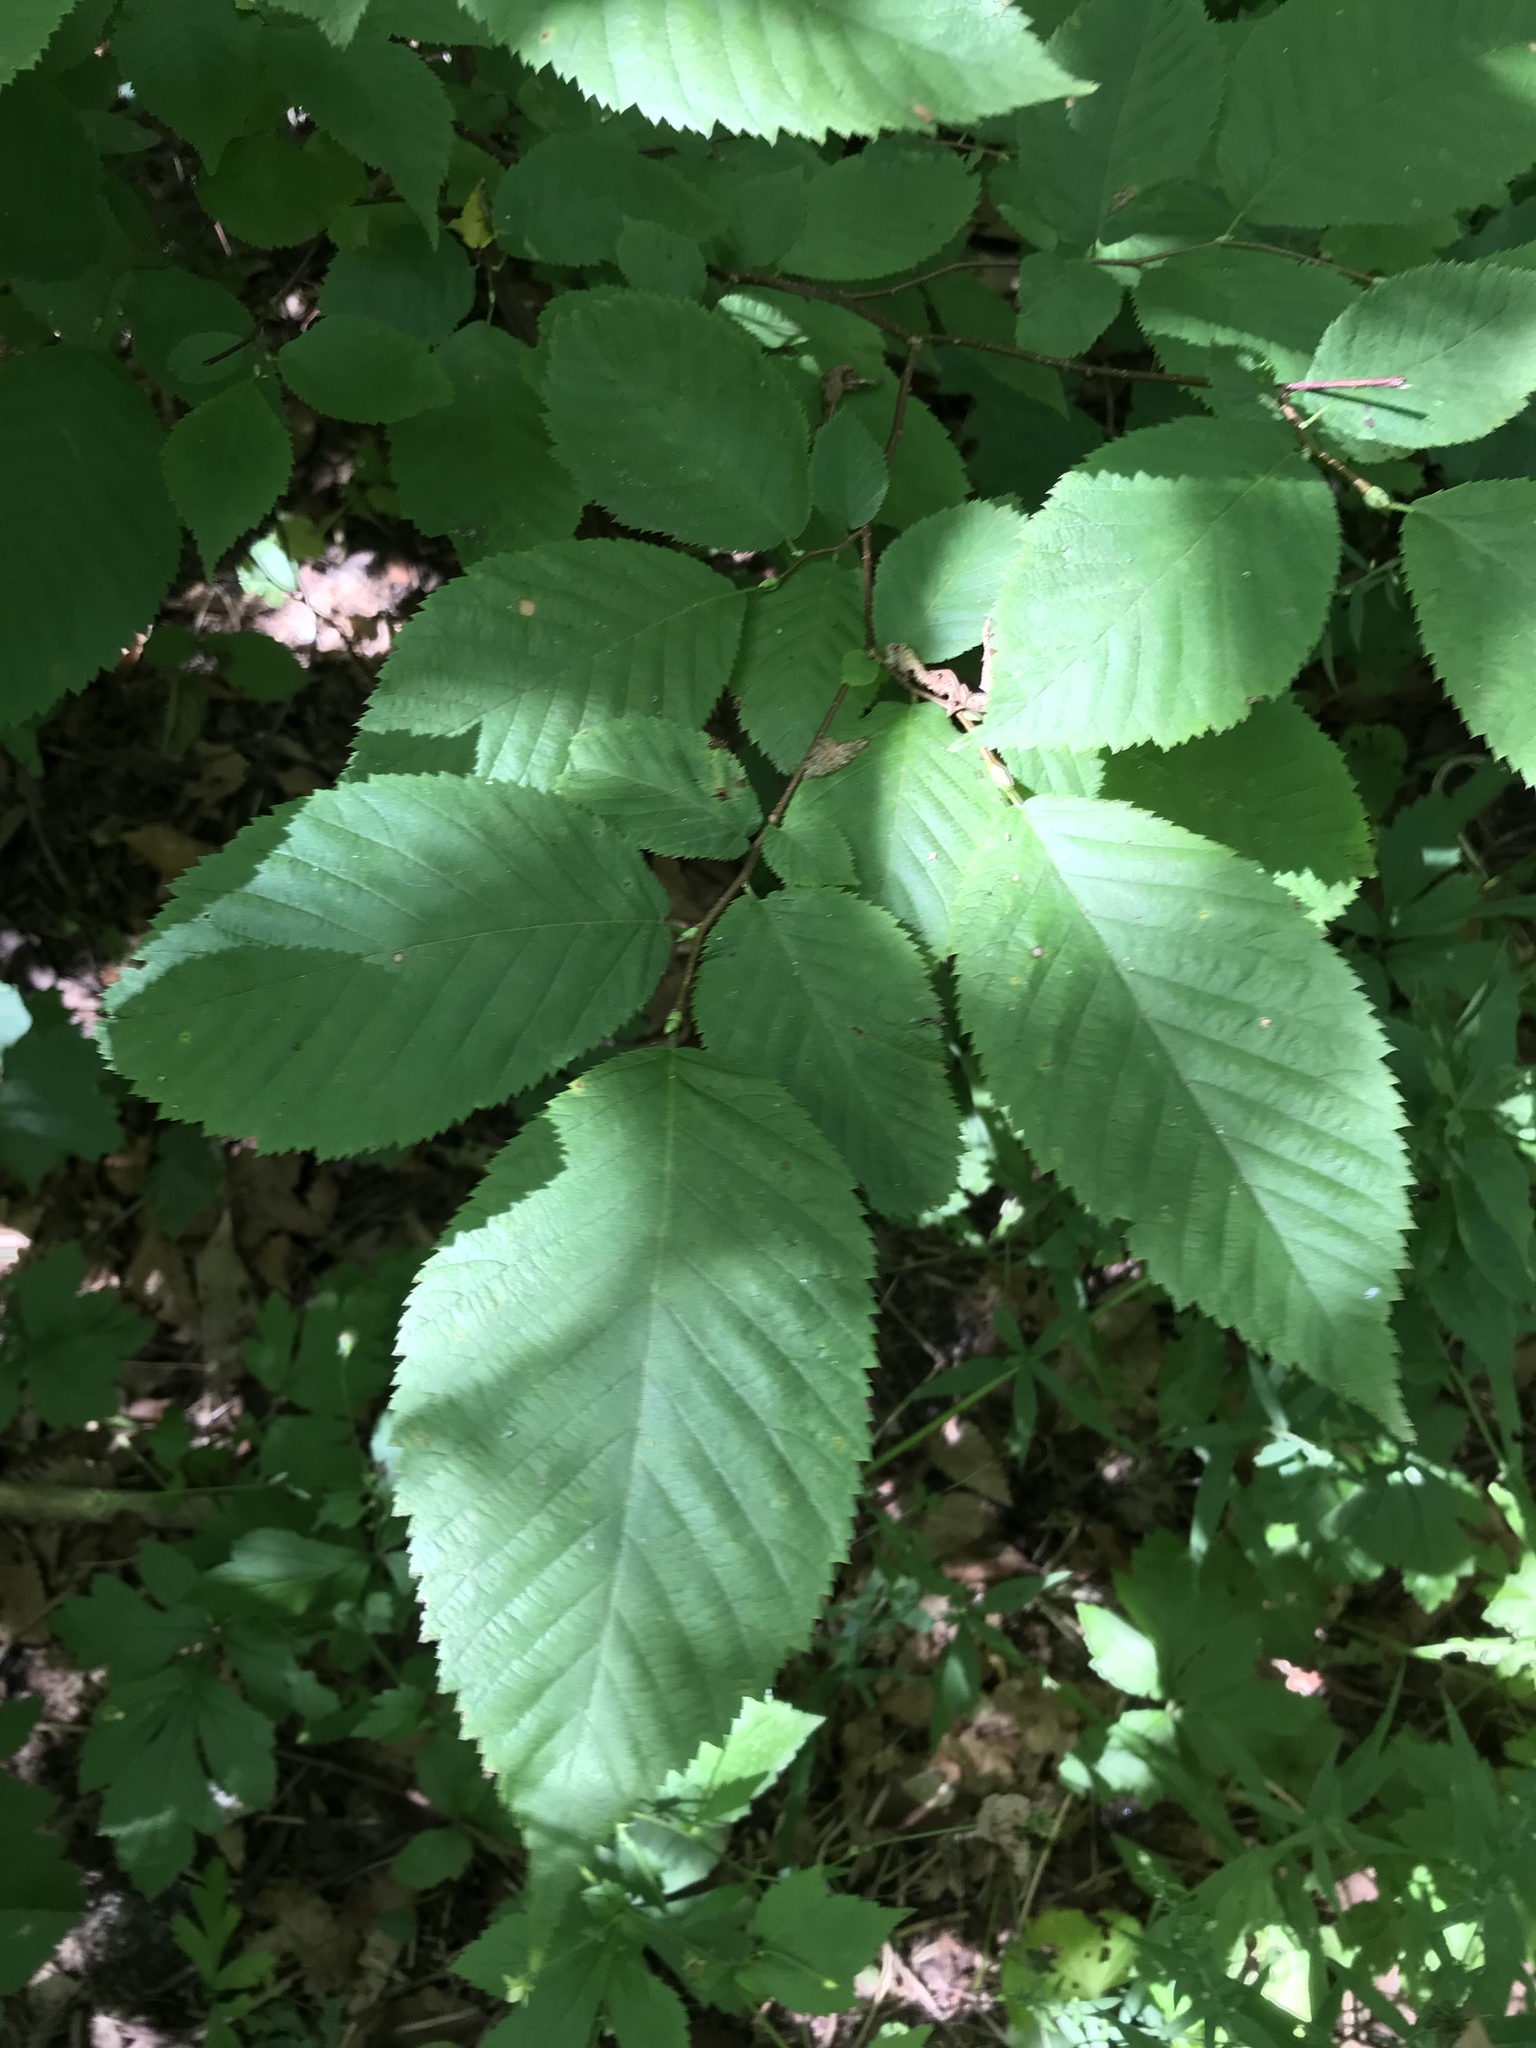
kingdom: Plantae
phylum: Tracheophyta
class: Magnoliopsida
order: Fagales
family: Betulaceae
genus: Ostrya
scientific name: Ostrya virginiana
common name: Ironwood
